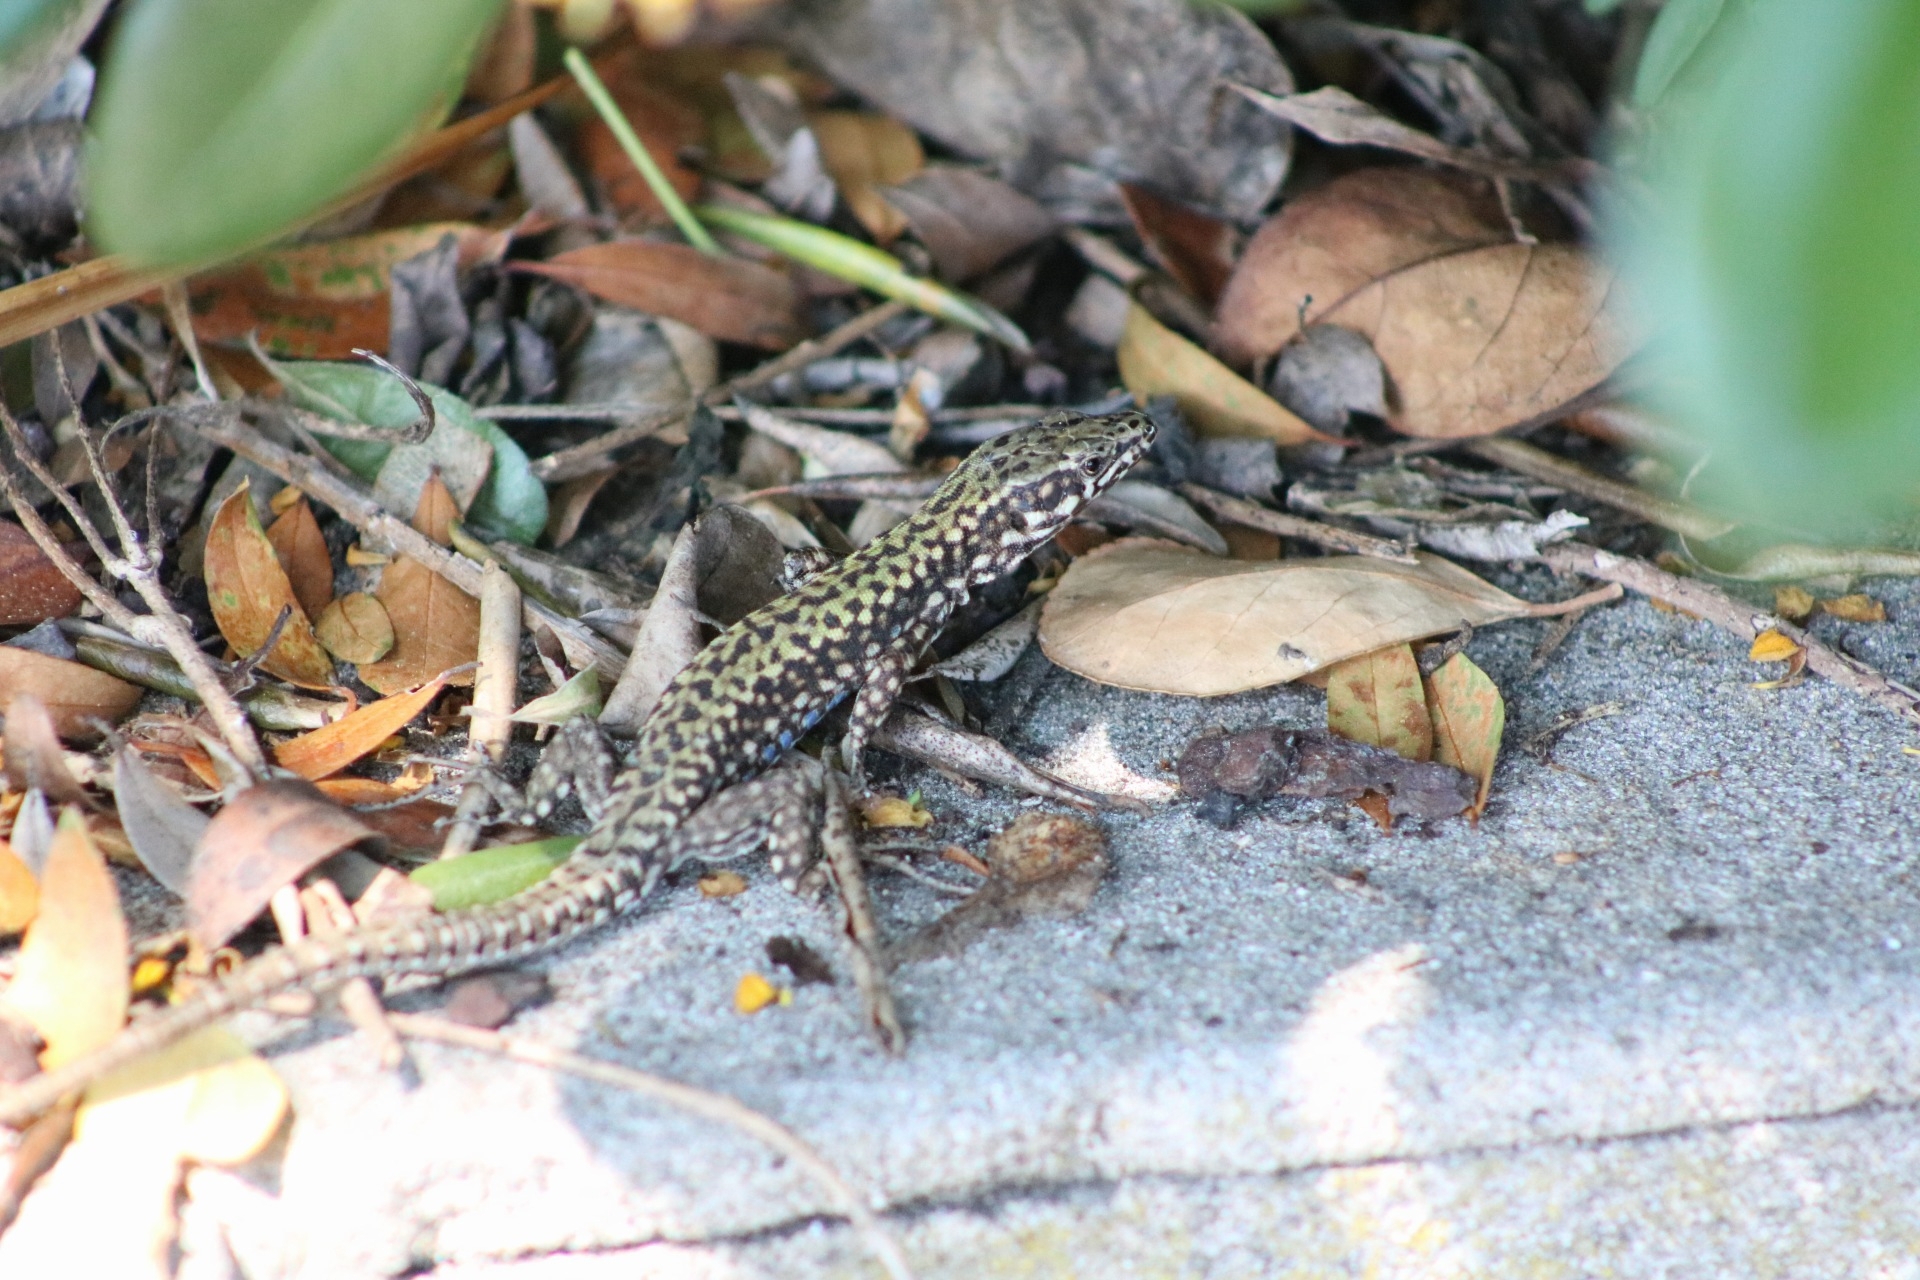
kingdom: Animalia
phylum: Chordata
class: Squamata
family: Lacertidae
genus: Podarcis
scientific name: Podarcis muralis
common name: Common wall lizard
